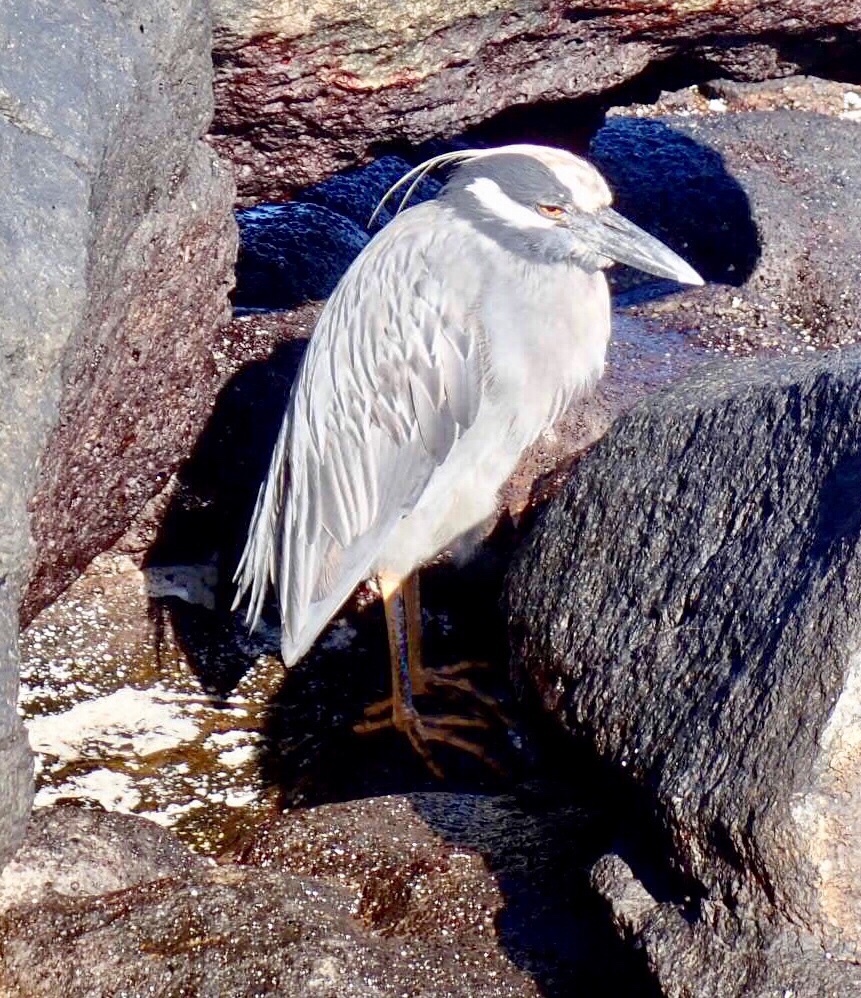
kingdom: Animalia
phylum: Chordata
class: Aves
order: Pelecaniformes
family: Ardeidae
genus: Nyctanassa
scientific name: Nyctanassa violacea
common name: Yellow-crowned night heron
